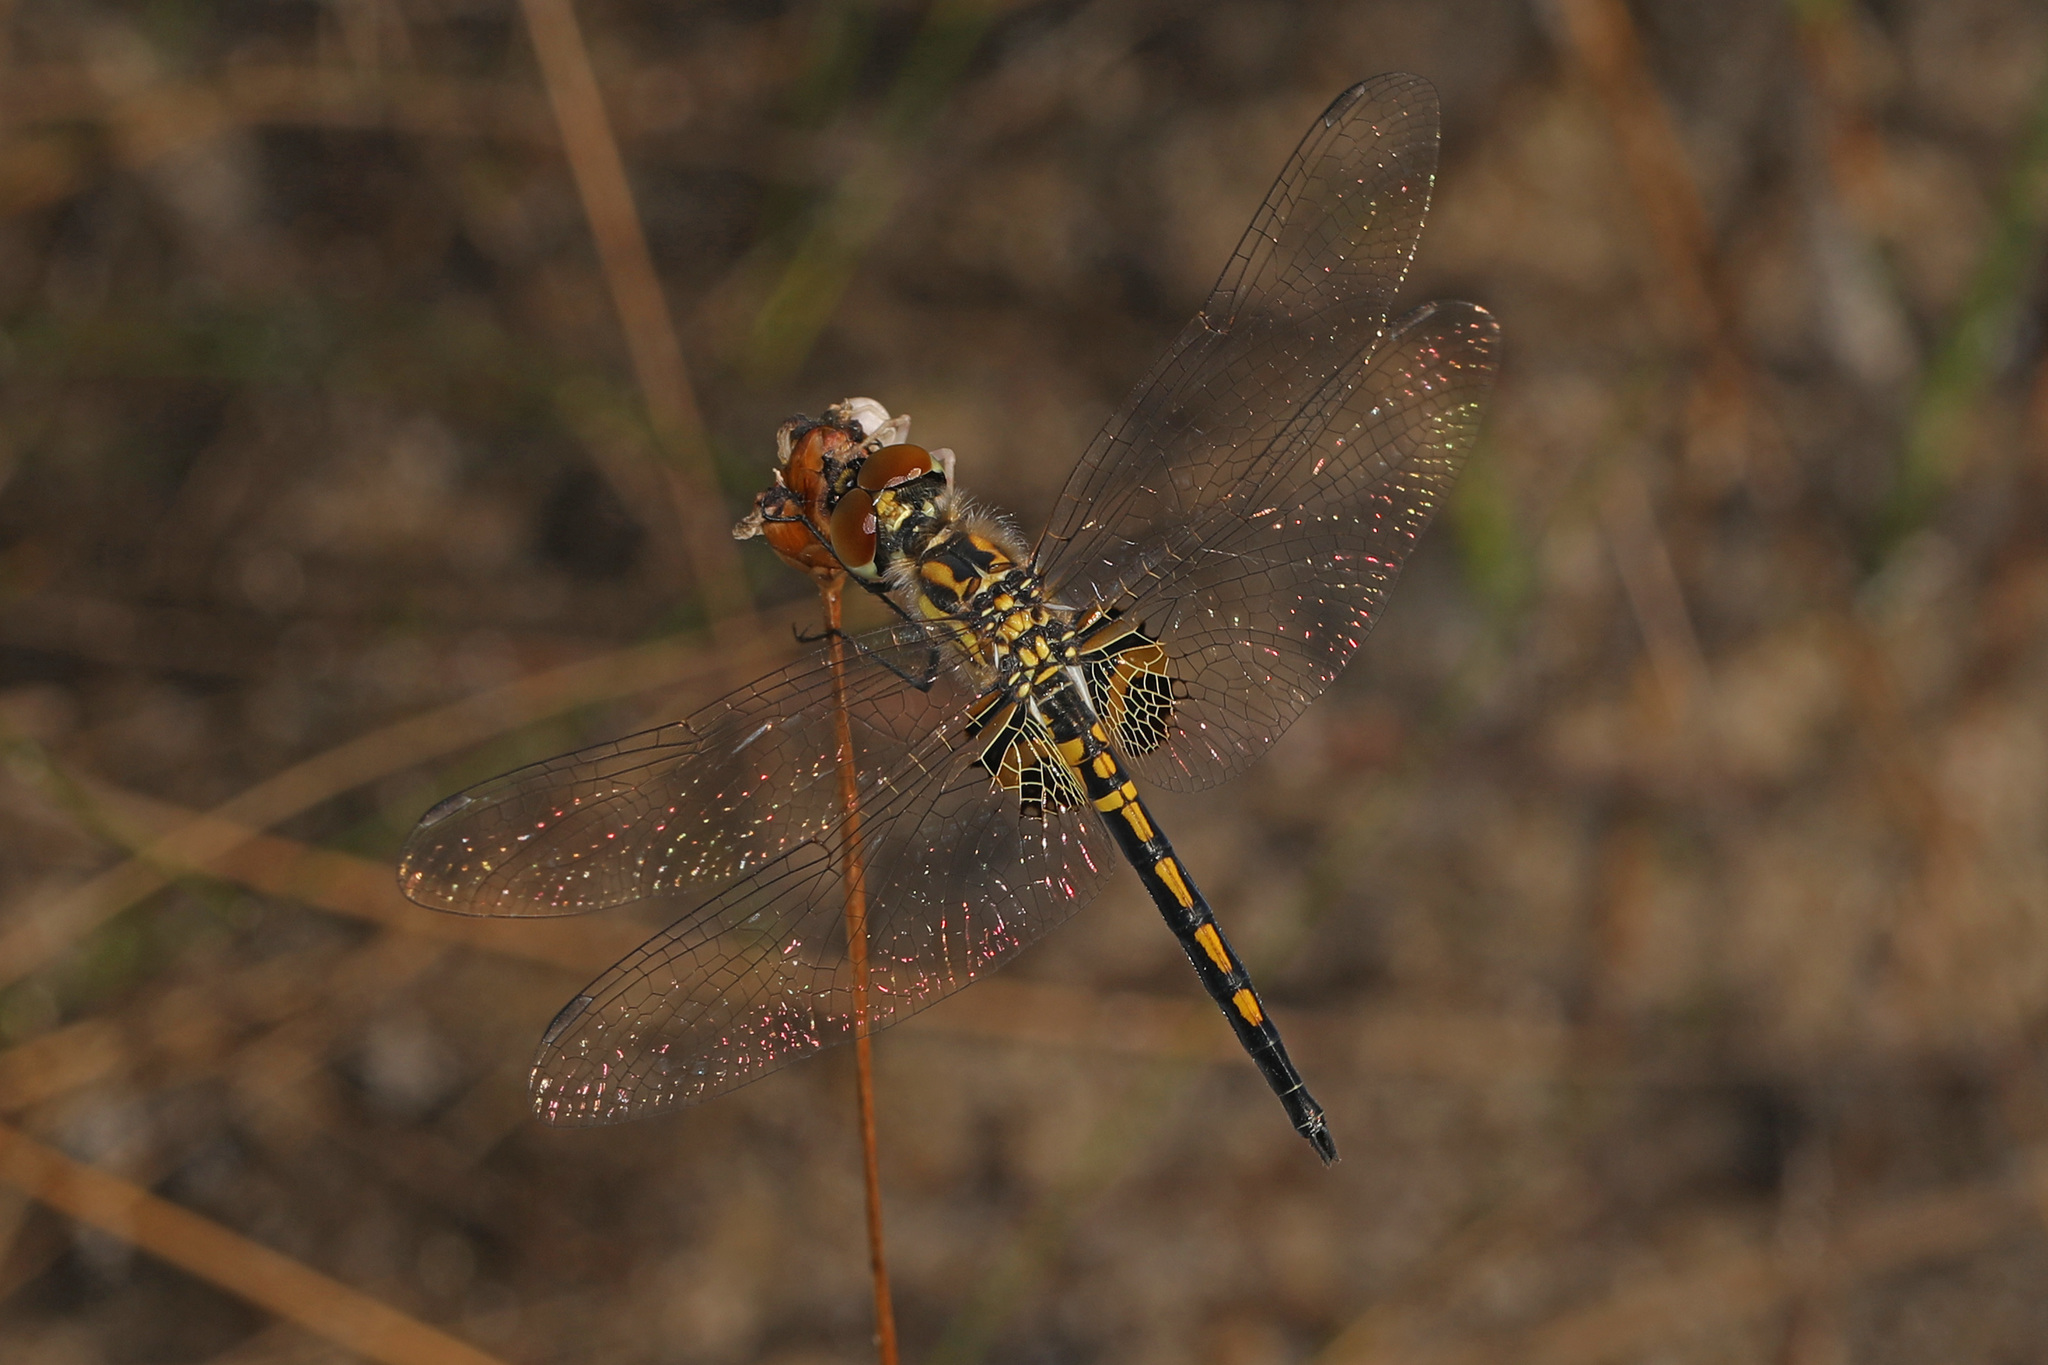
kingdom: Animalia
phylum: Arthropoda
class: Insecta
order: Odonata
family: Libellulidae
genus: Celithemis
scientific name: Celithemis ornata
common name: Ornate pennant
